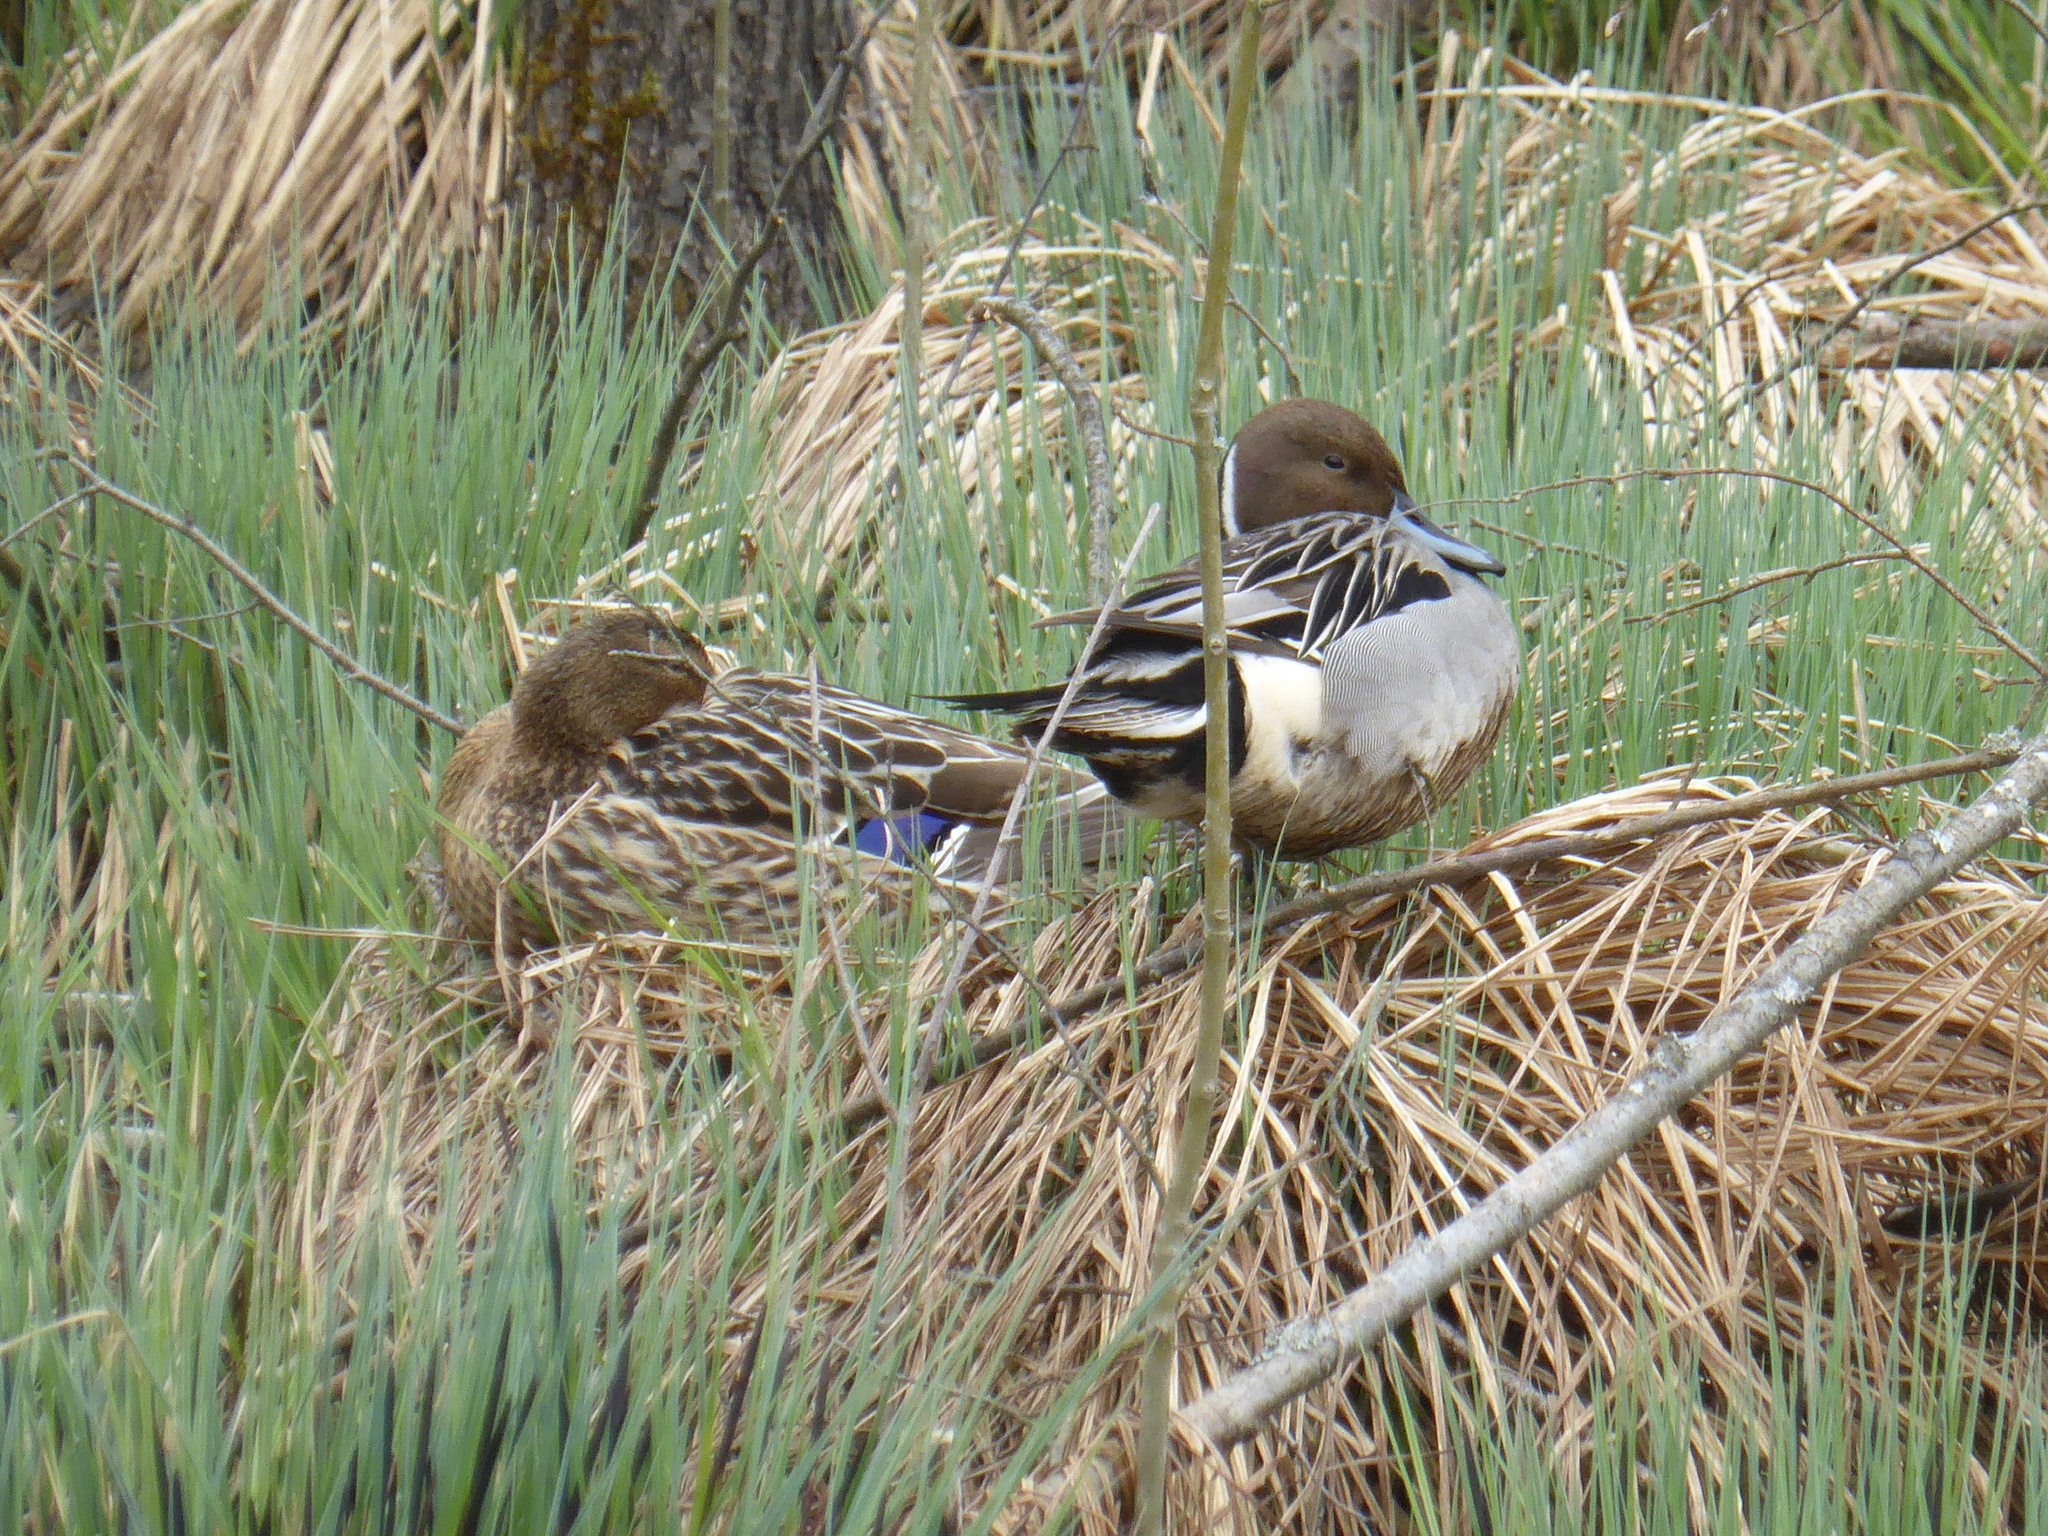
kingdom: Animalia
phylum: Chordata
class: Aves
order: Anseriformes
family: Anatidae
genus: Anas
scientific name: Anas platyrhynchos
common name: Mallard
